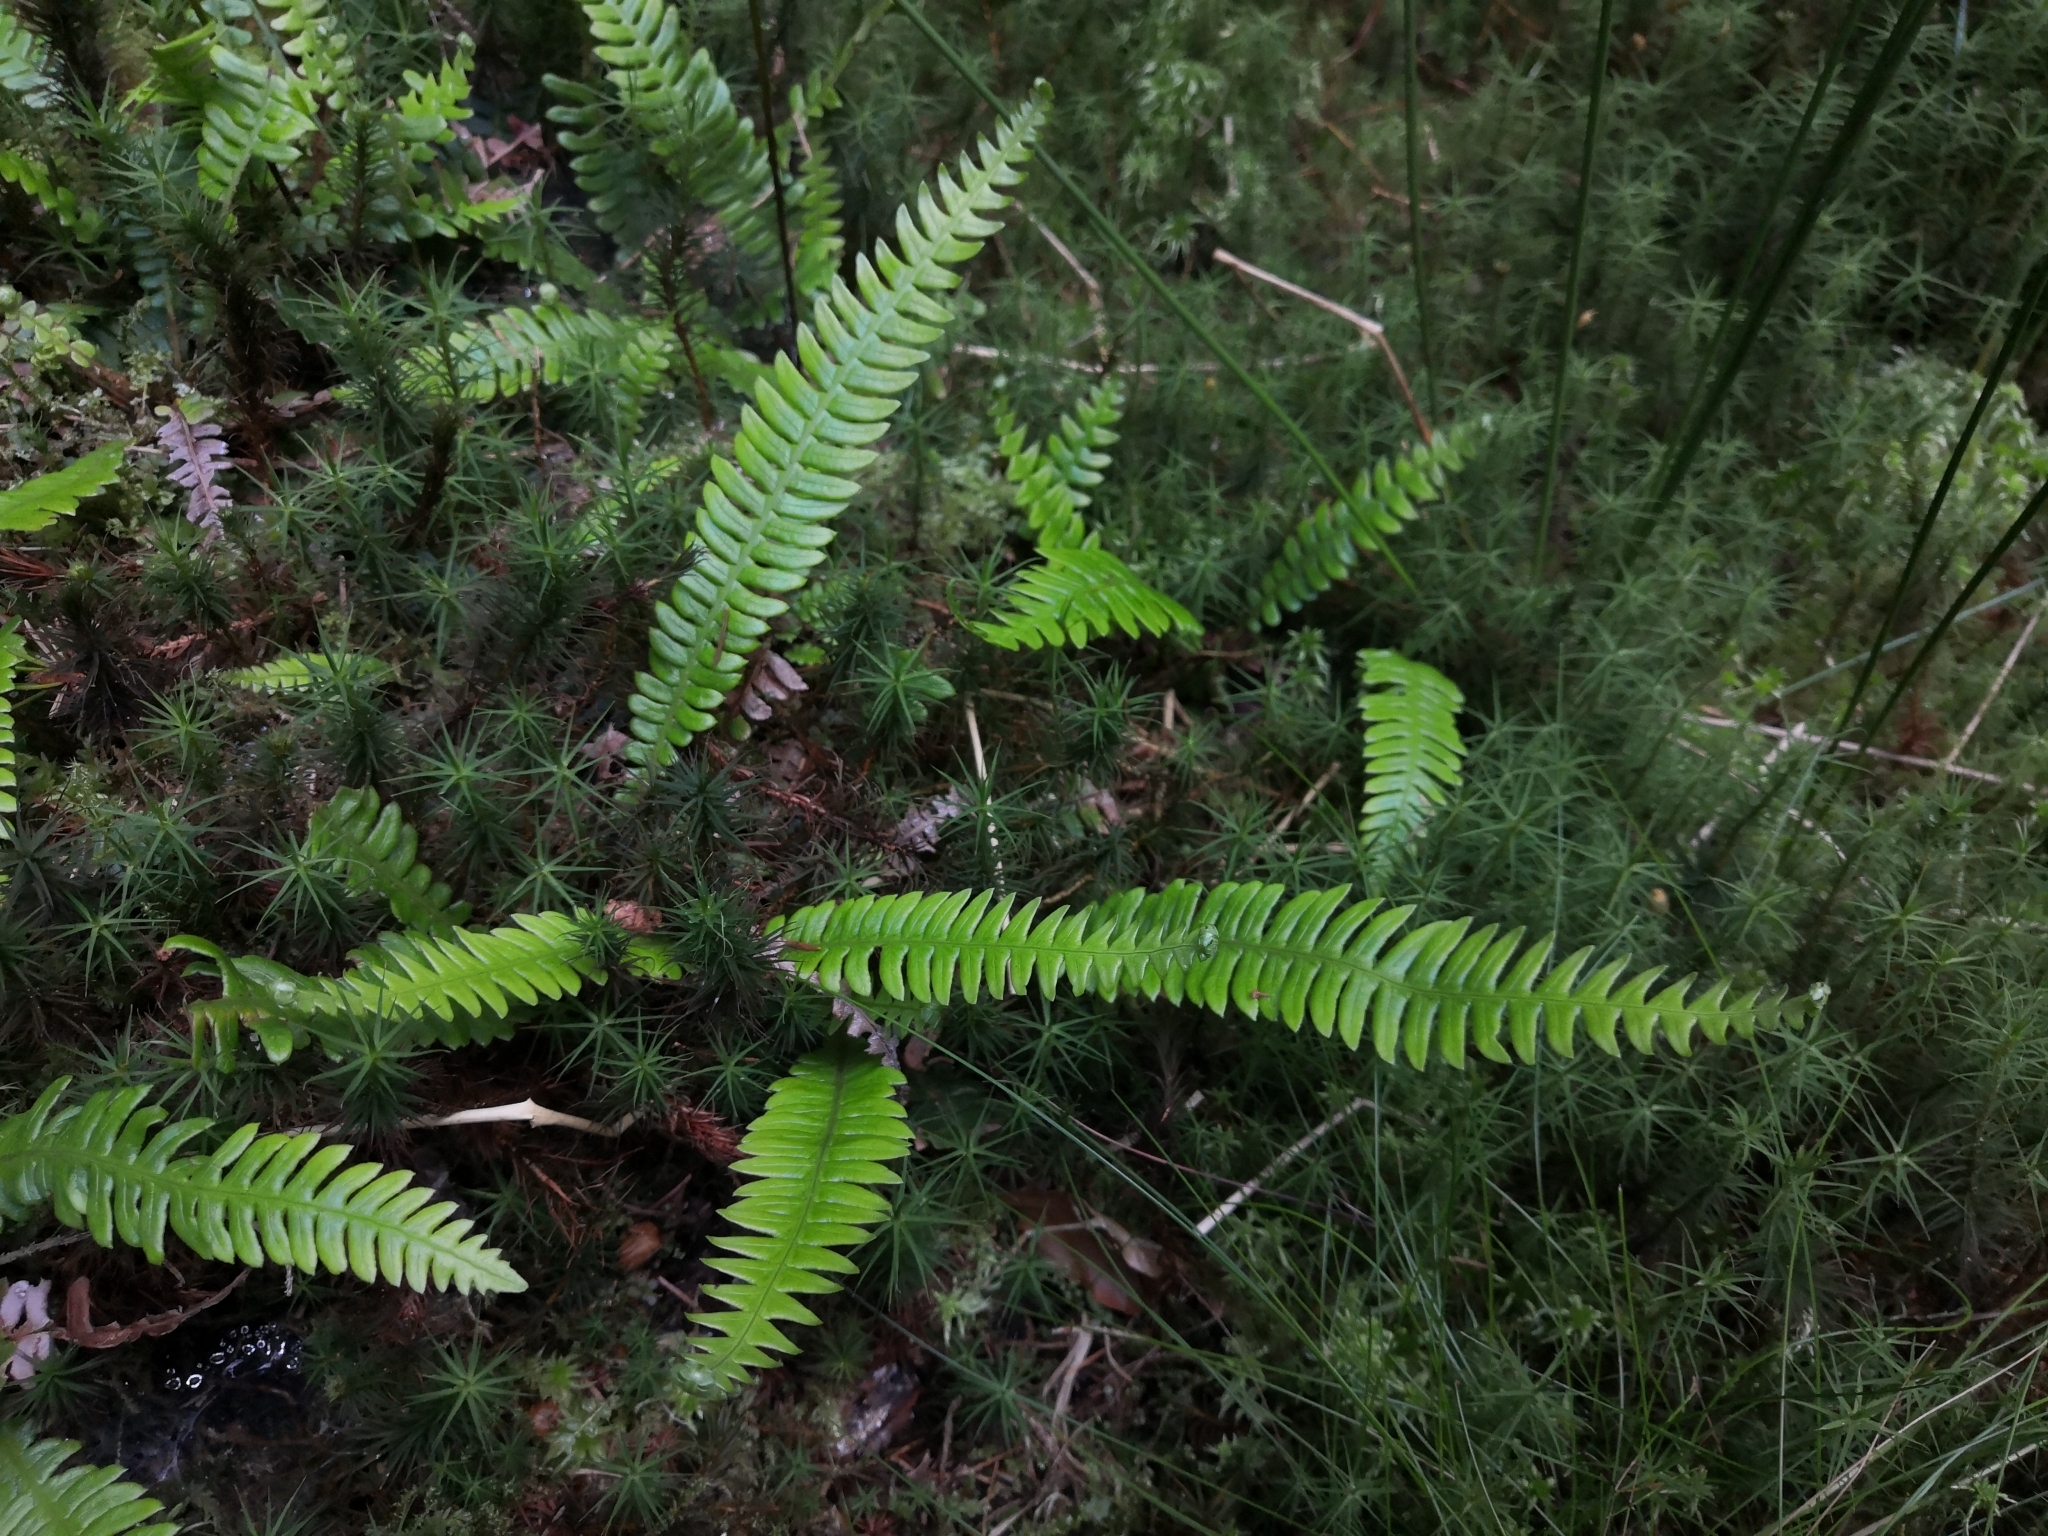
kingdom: Plantae
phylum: Tracheophyta
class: Polypodiopsida
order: Polypodiales
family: Blechnaceae
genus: Struthiopteris
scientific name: Struthiopteris spicant
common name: Deer fern
